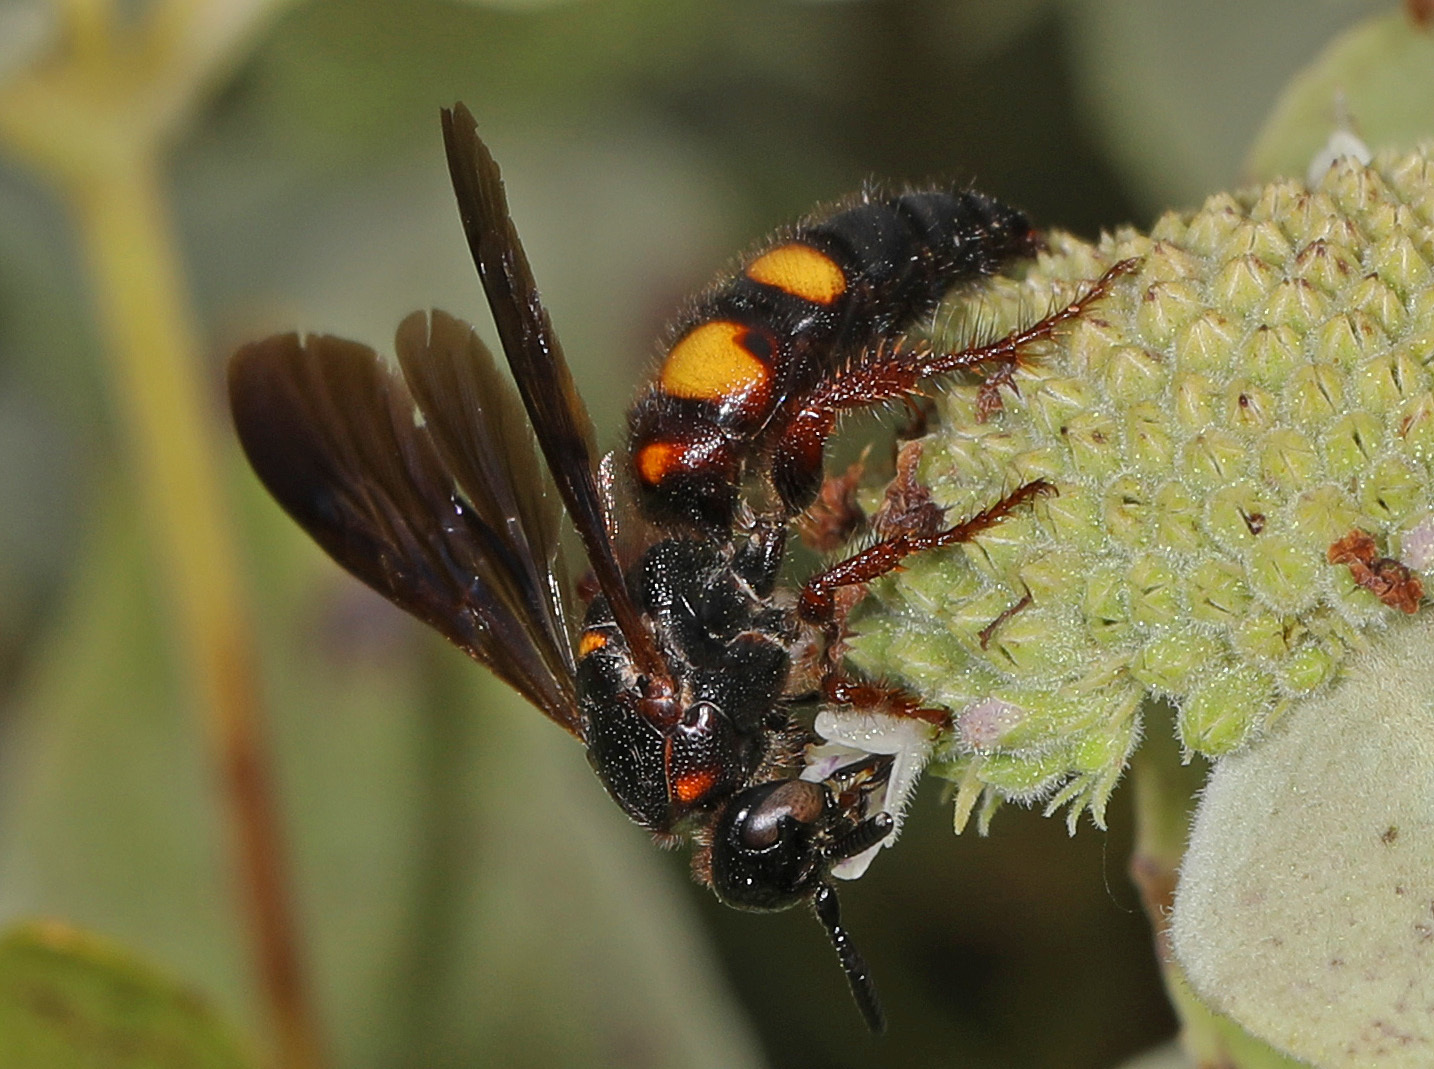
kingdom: Animalia
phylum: Arthropoda
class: Insecta
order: Hymenoptera
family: Scoliidae
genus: Scolia
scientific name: Scolia nobilitata
